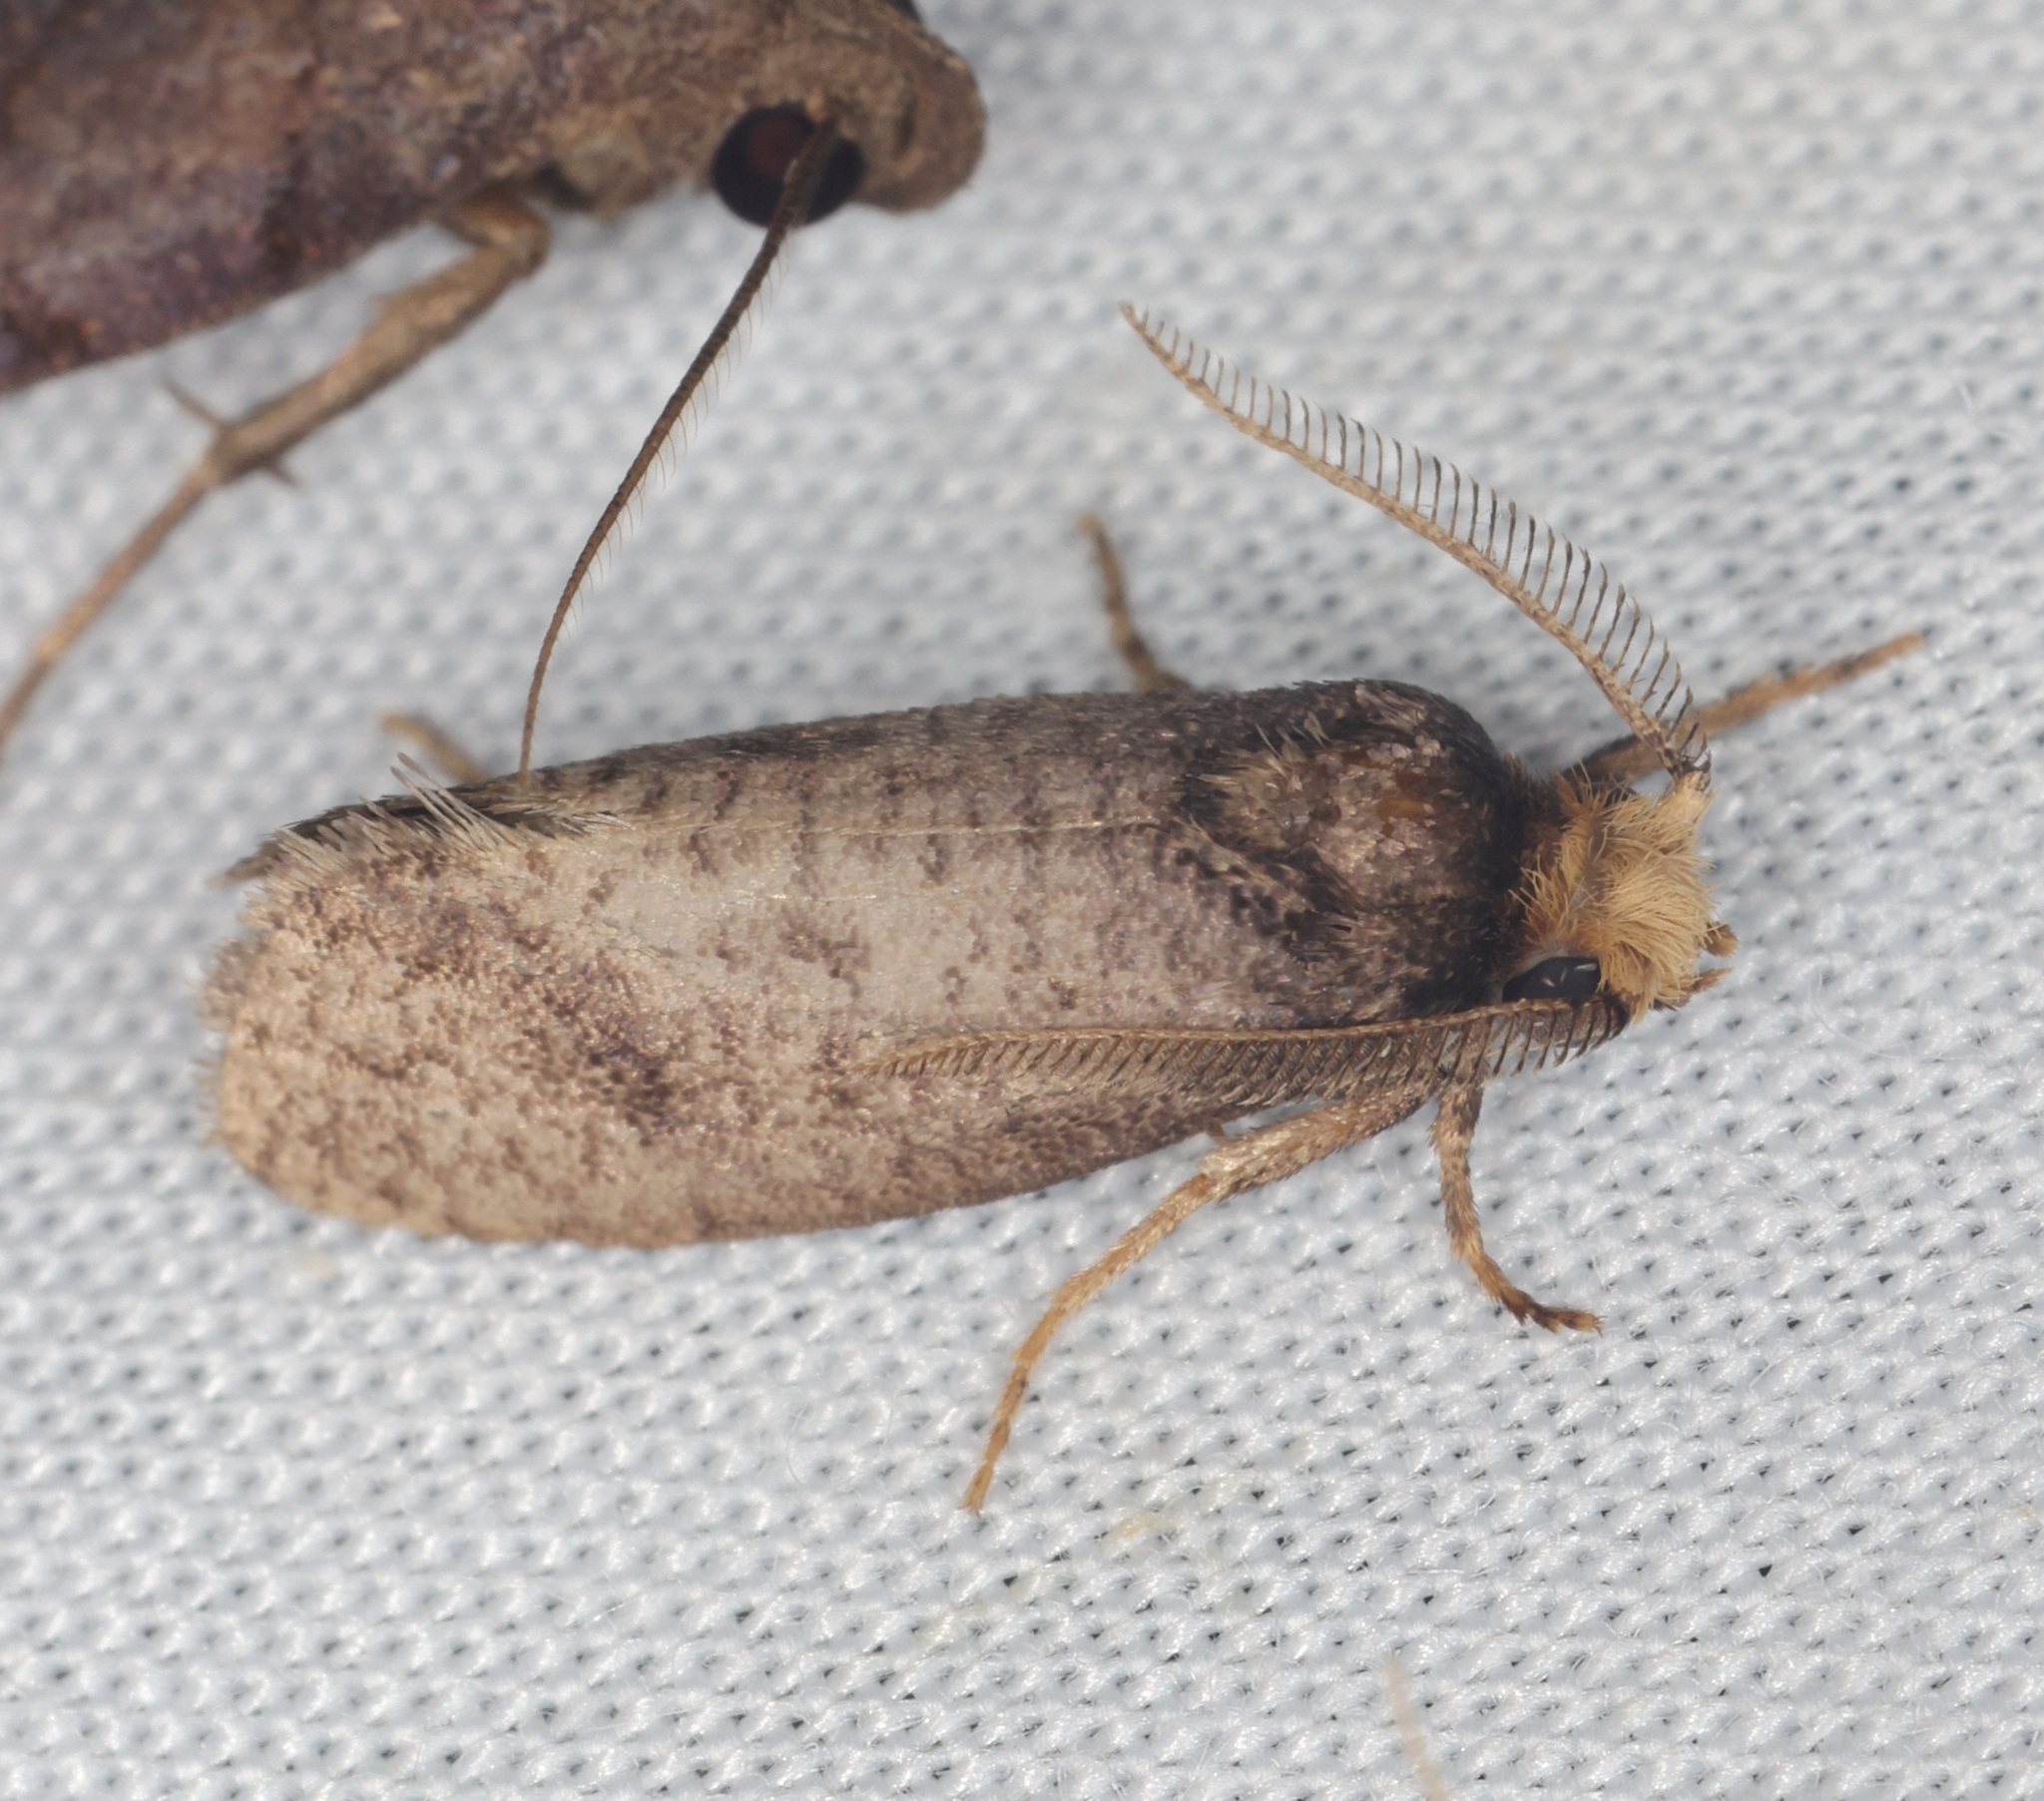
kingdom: Animalia
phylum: Arthropoda
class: Insecta
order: Lepidoptera
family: Eriocottidae
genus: Compsoctena
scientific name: Compsoctena
